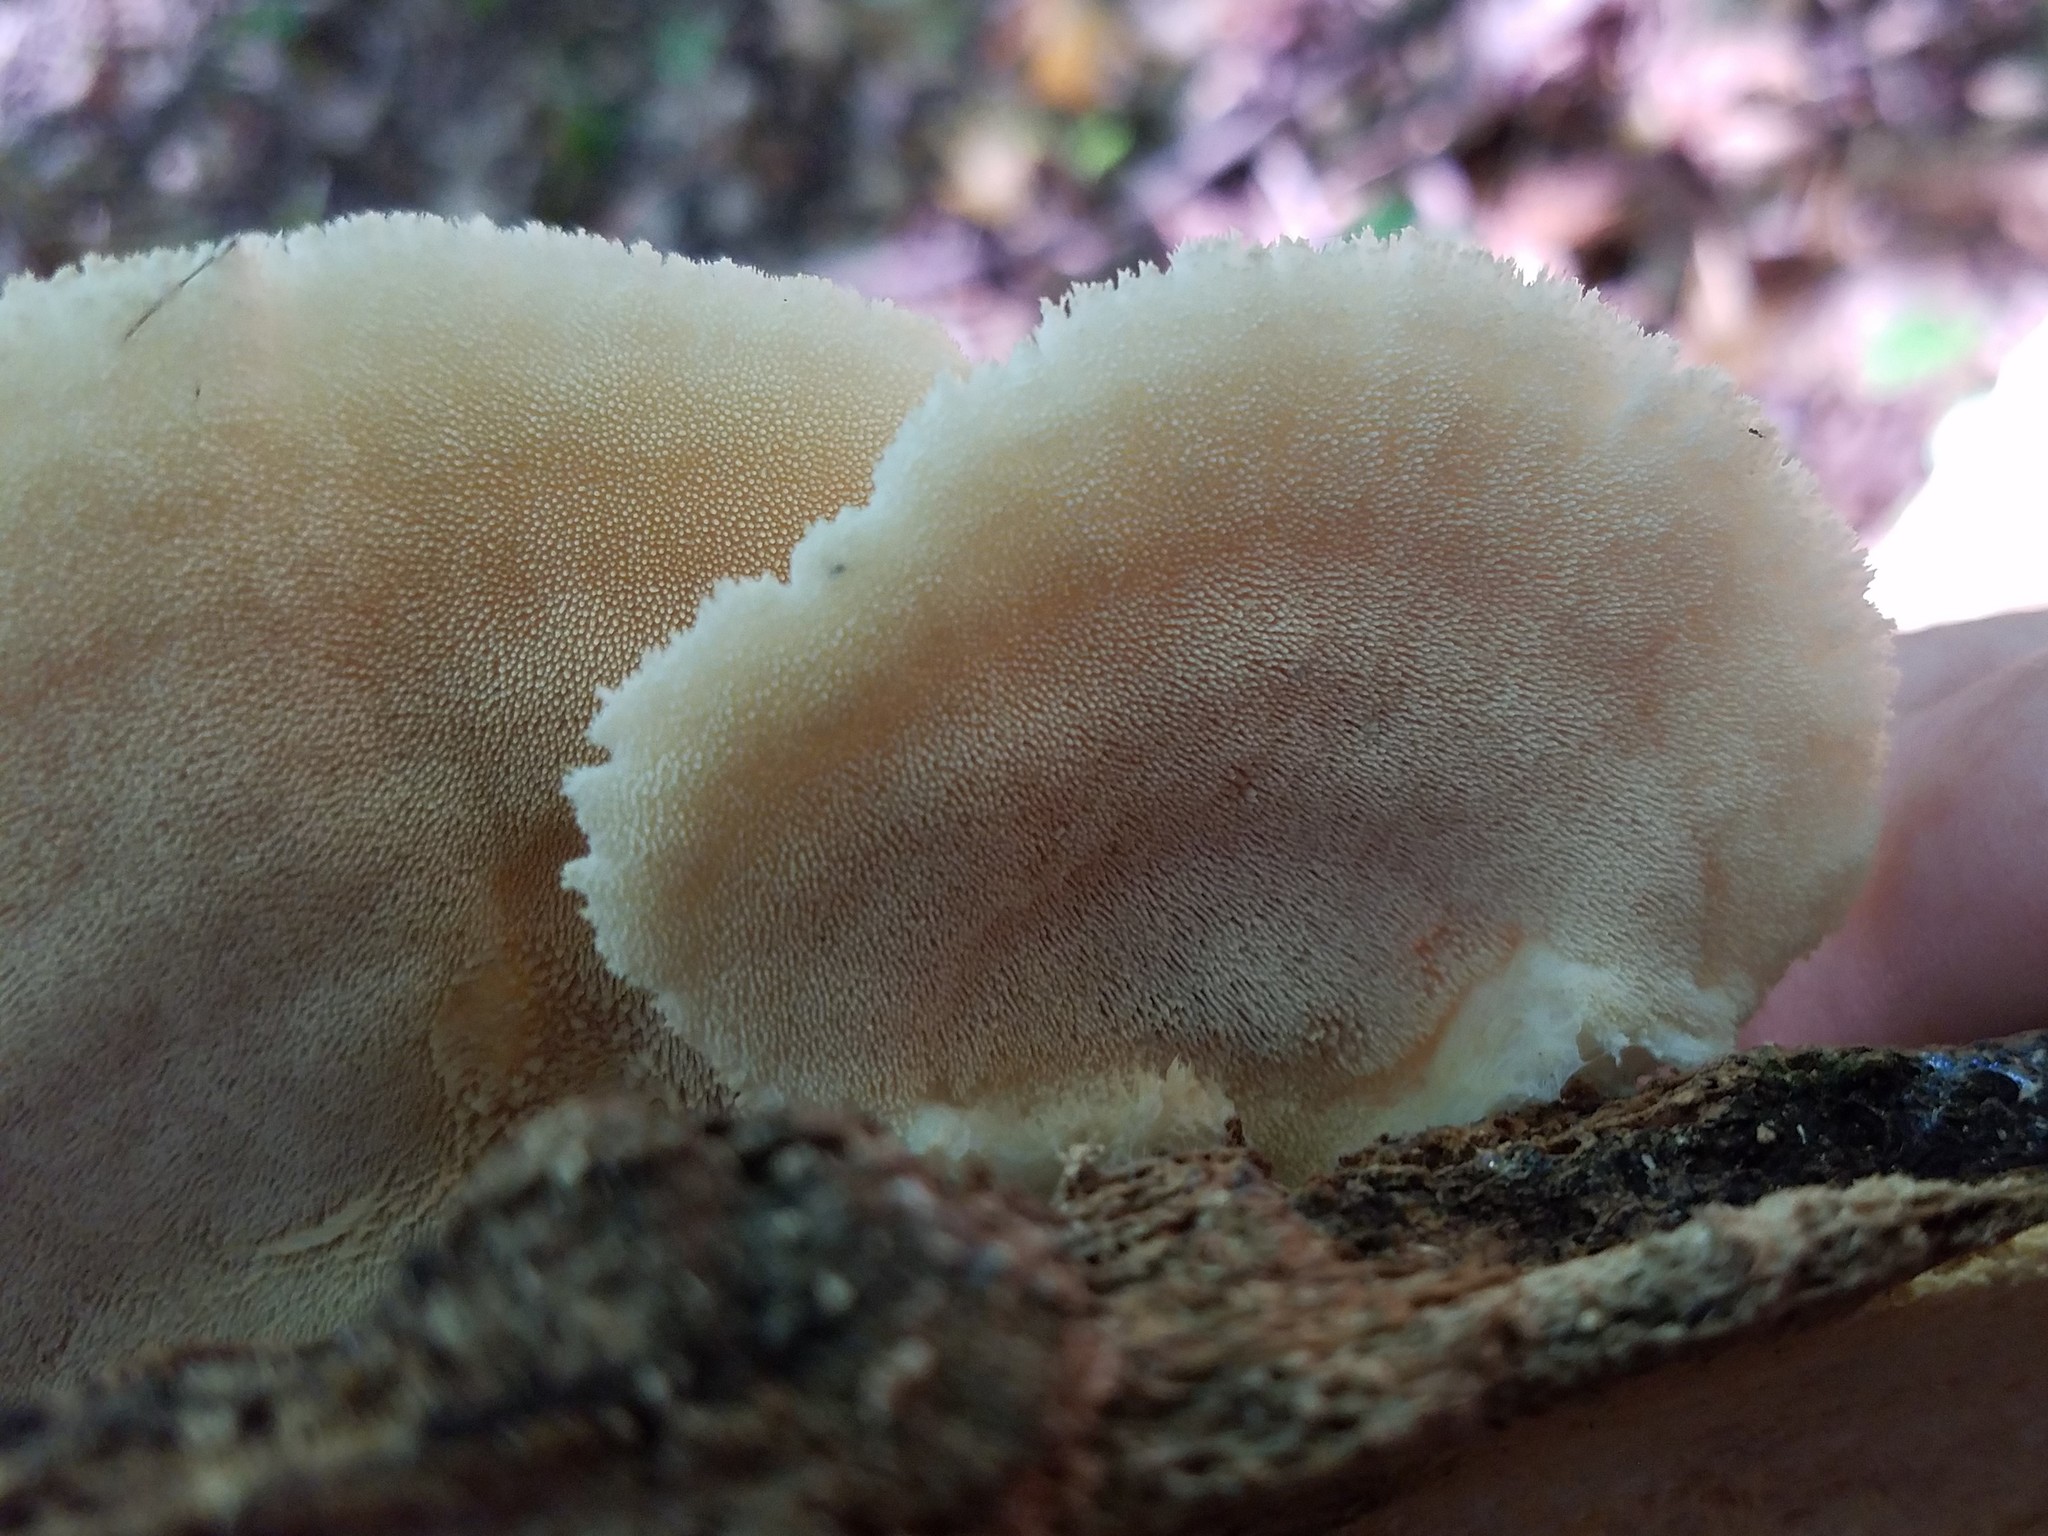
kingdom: Fungi
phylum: Basidiomycota
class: Agaricomycetes
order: Polyporales
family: Meruliaceae
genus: Donkia
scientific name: Donkia pulcherrima
